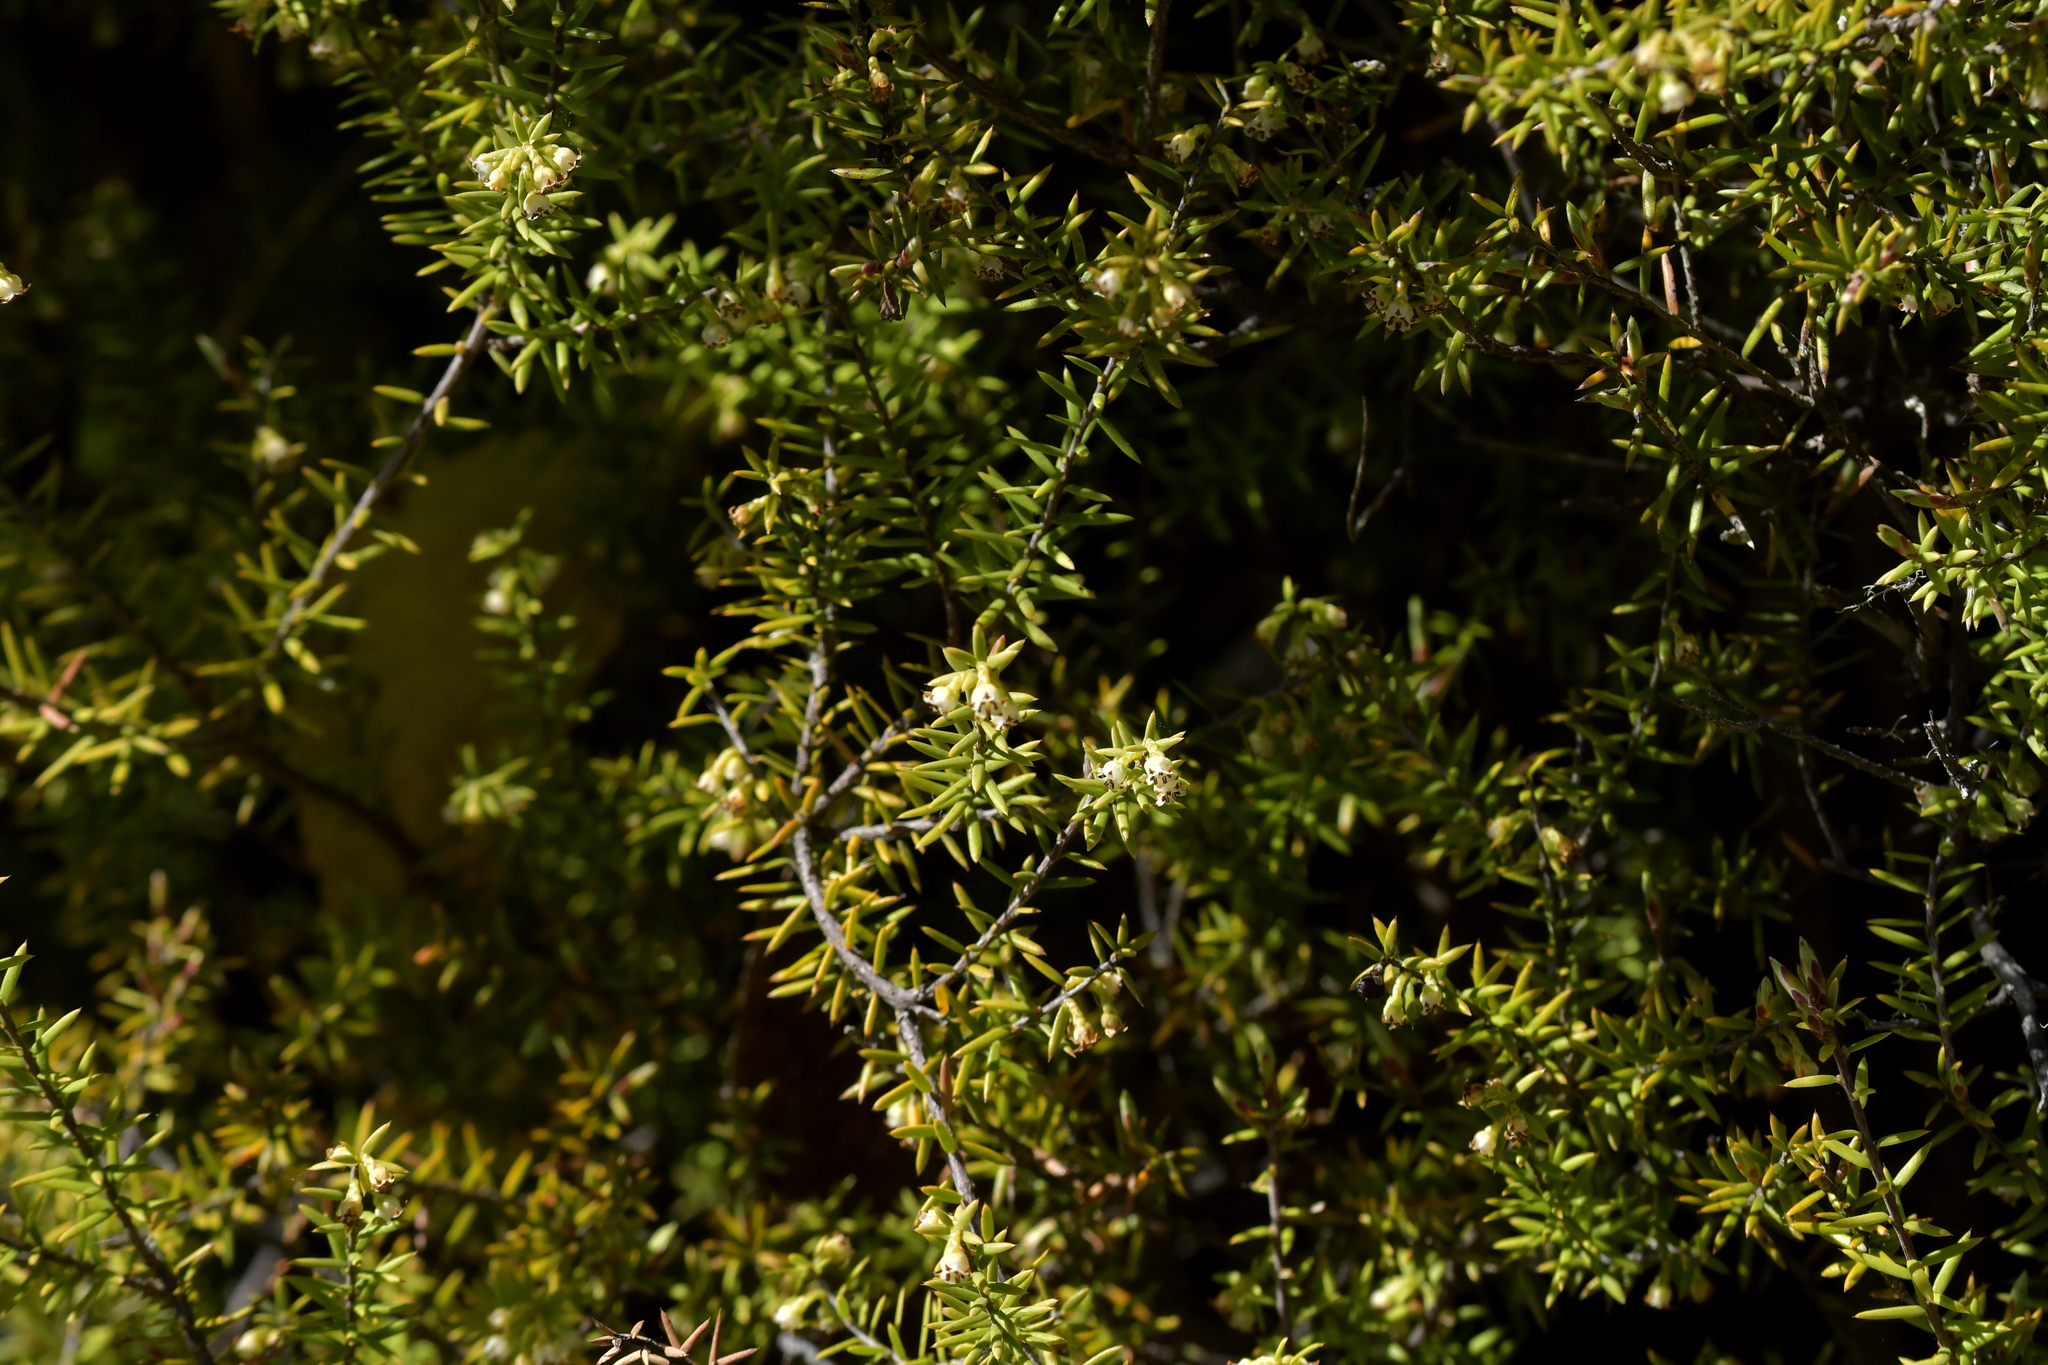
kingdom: Plantae
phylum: Tracheophyta
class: Magnoliopsida
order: Ericales
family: Ericaceae
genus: Leptecophylla
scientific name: Leptecophylla juniperina
